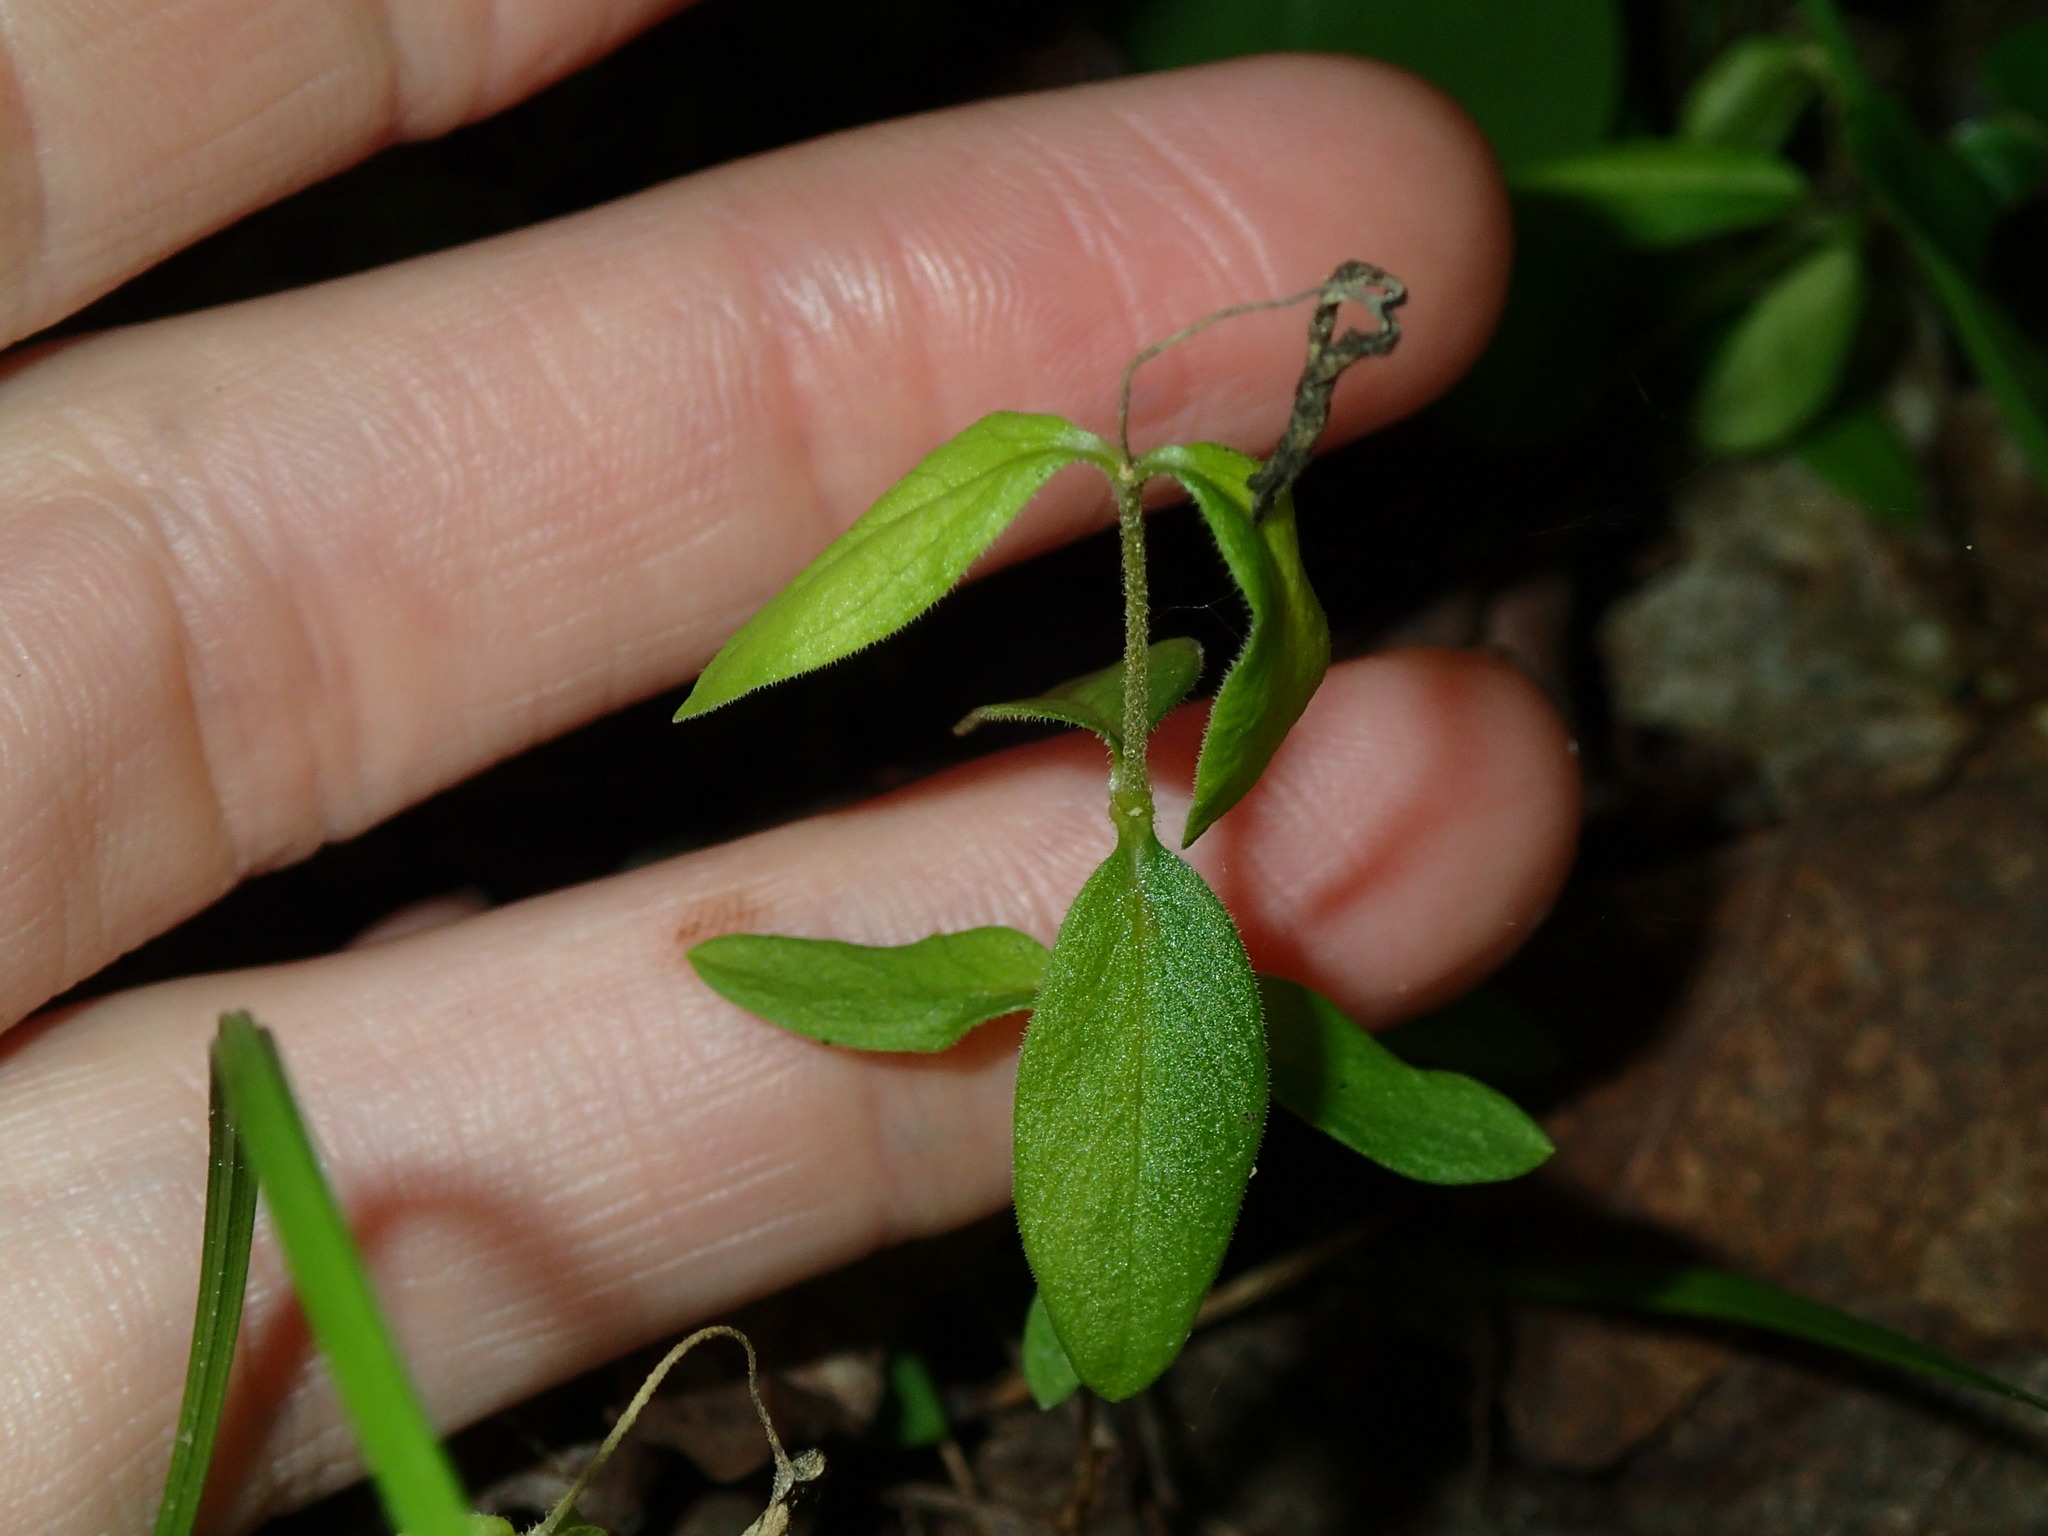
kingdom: Plantae
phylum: Tracheophyta
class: Magnoliopsida
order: Ericales
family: Polemoniaceae
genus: Phlox
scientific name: Phlox divaricata
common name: Blue phlox
